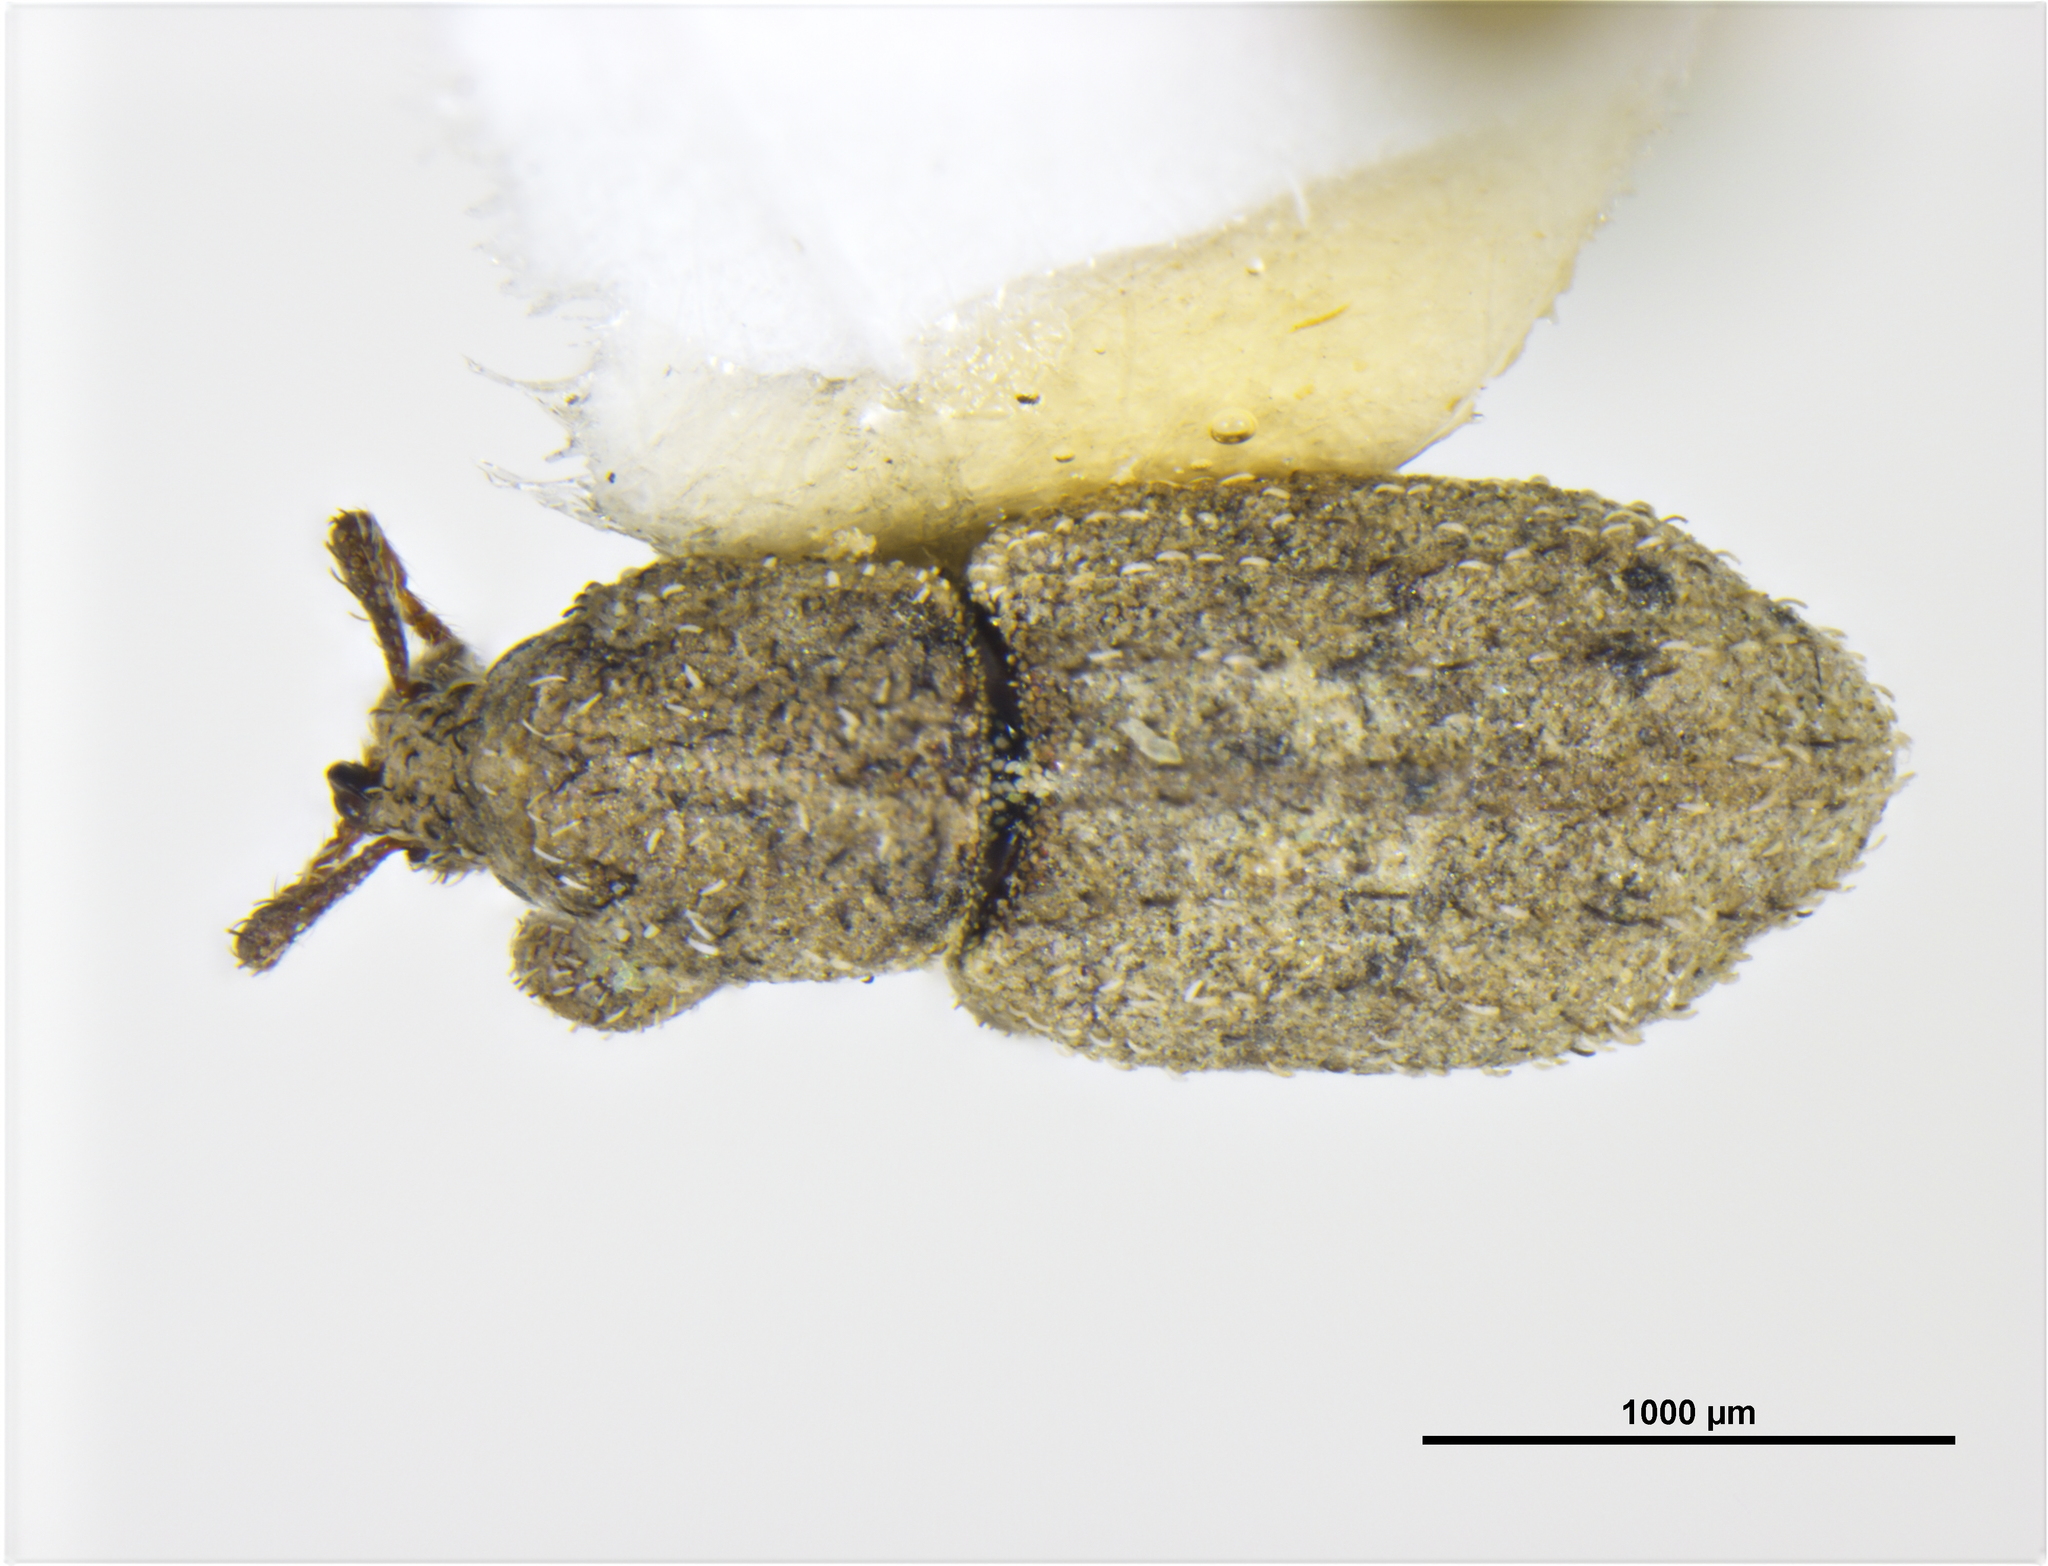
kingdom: Animalia
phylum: Arthropoda
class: Insecta
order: Coleoptera
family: Curculionidae
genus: Protolobus
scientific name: Protolobus obscurus
